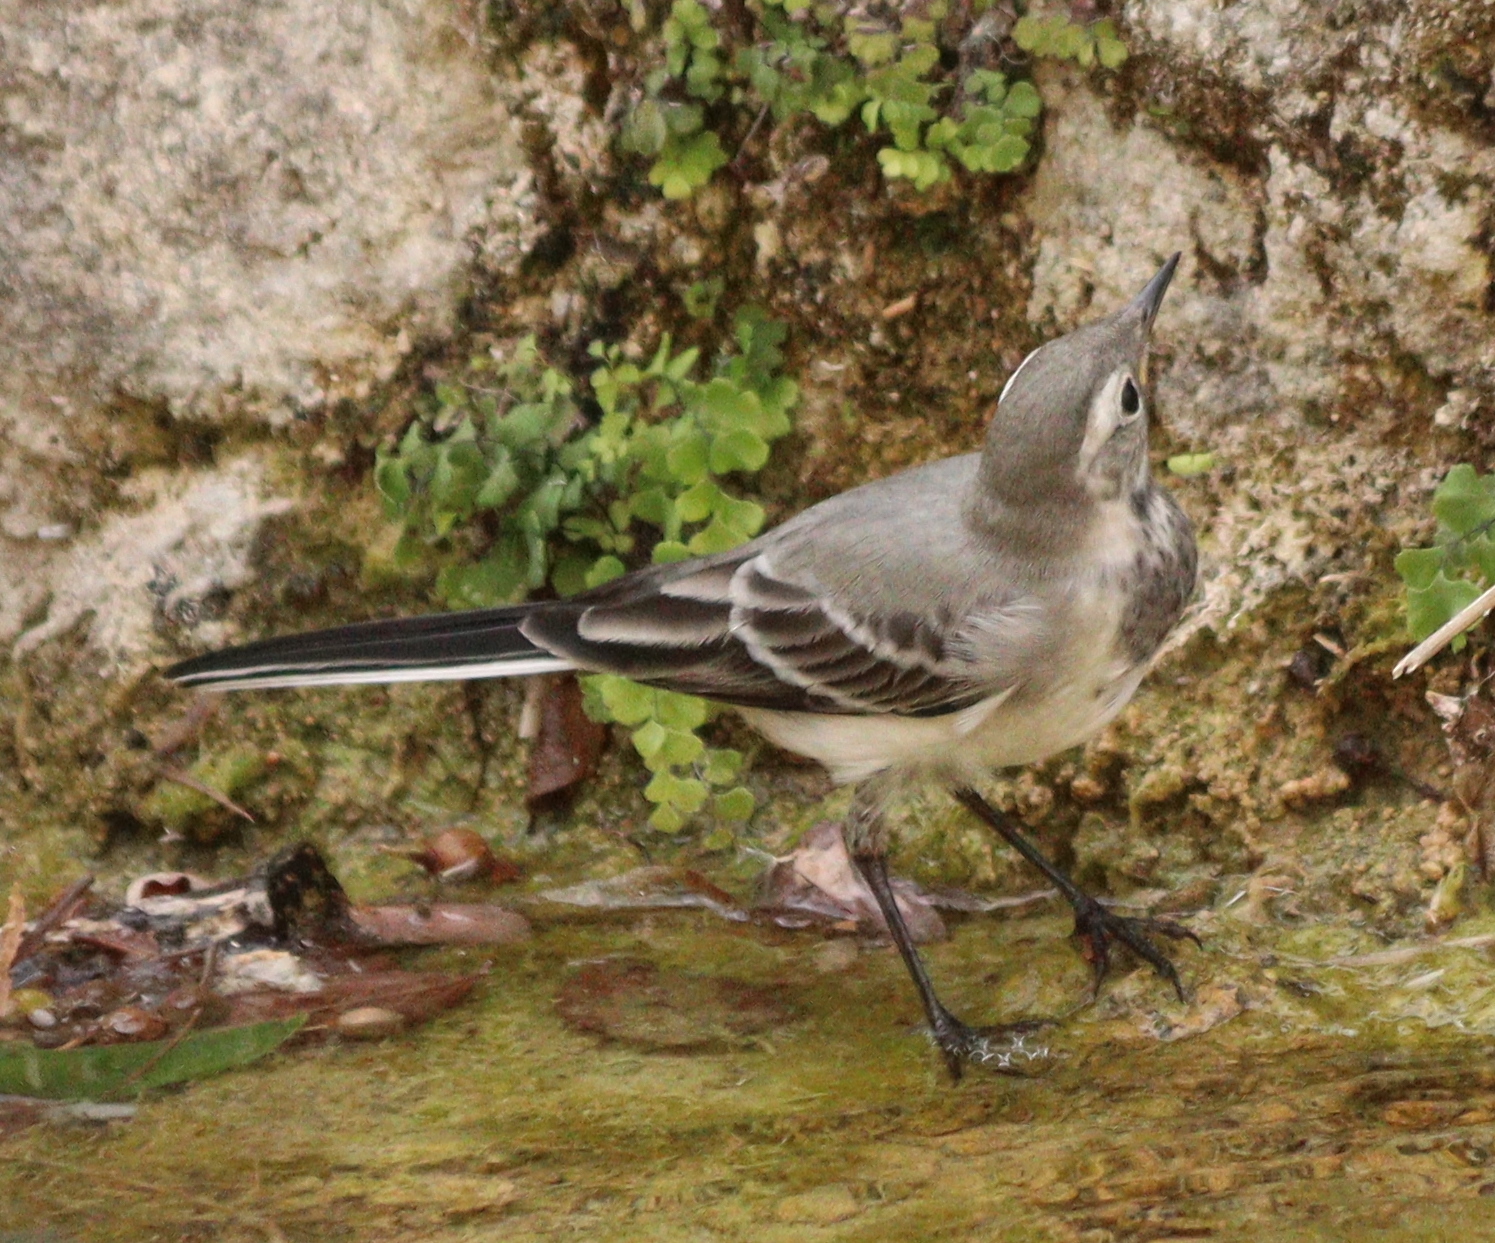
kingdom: Animalia
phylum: Chordata
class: Aves
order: Passeriformes
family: Motacillidae
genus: Motacilla
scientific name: Motacilla alba
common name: White wagtail
